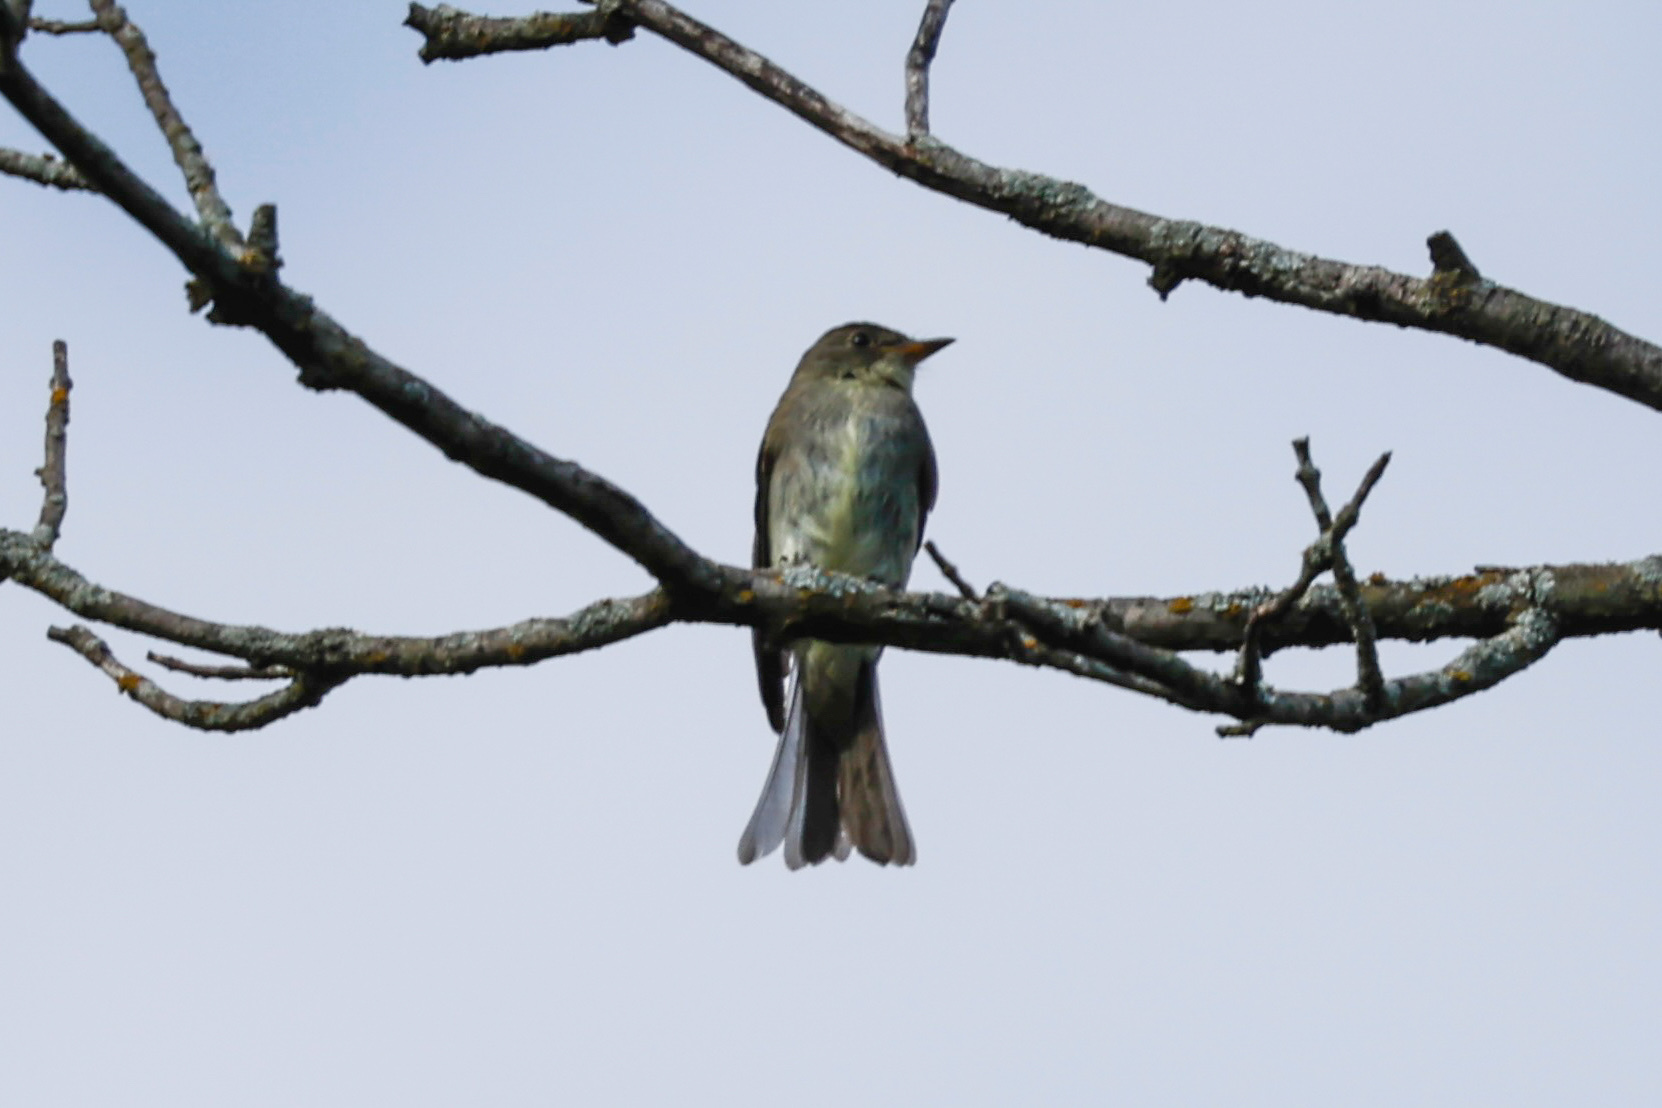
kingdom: Animalia
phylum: Chordata
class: Aves
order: Passeriformes
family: Tyrannidae
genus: Contopus
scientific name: Contopus virens
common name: Eastern wood-pewee
